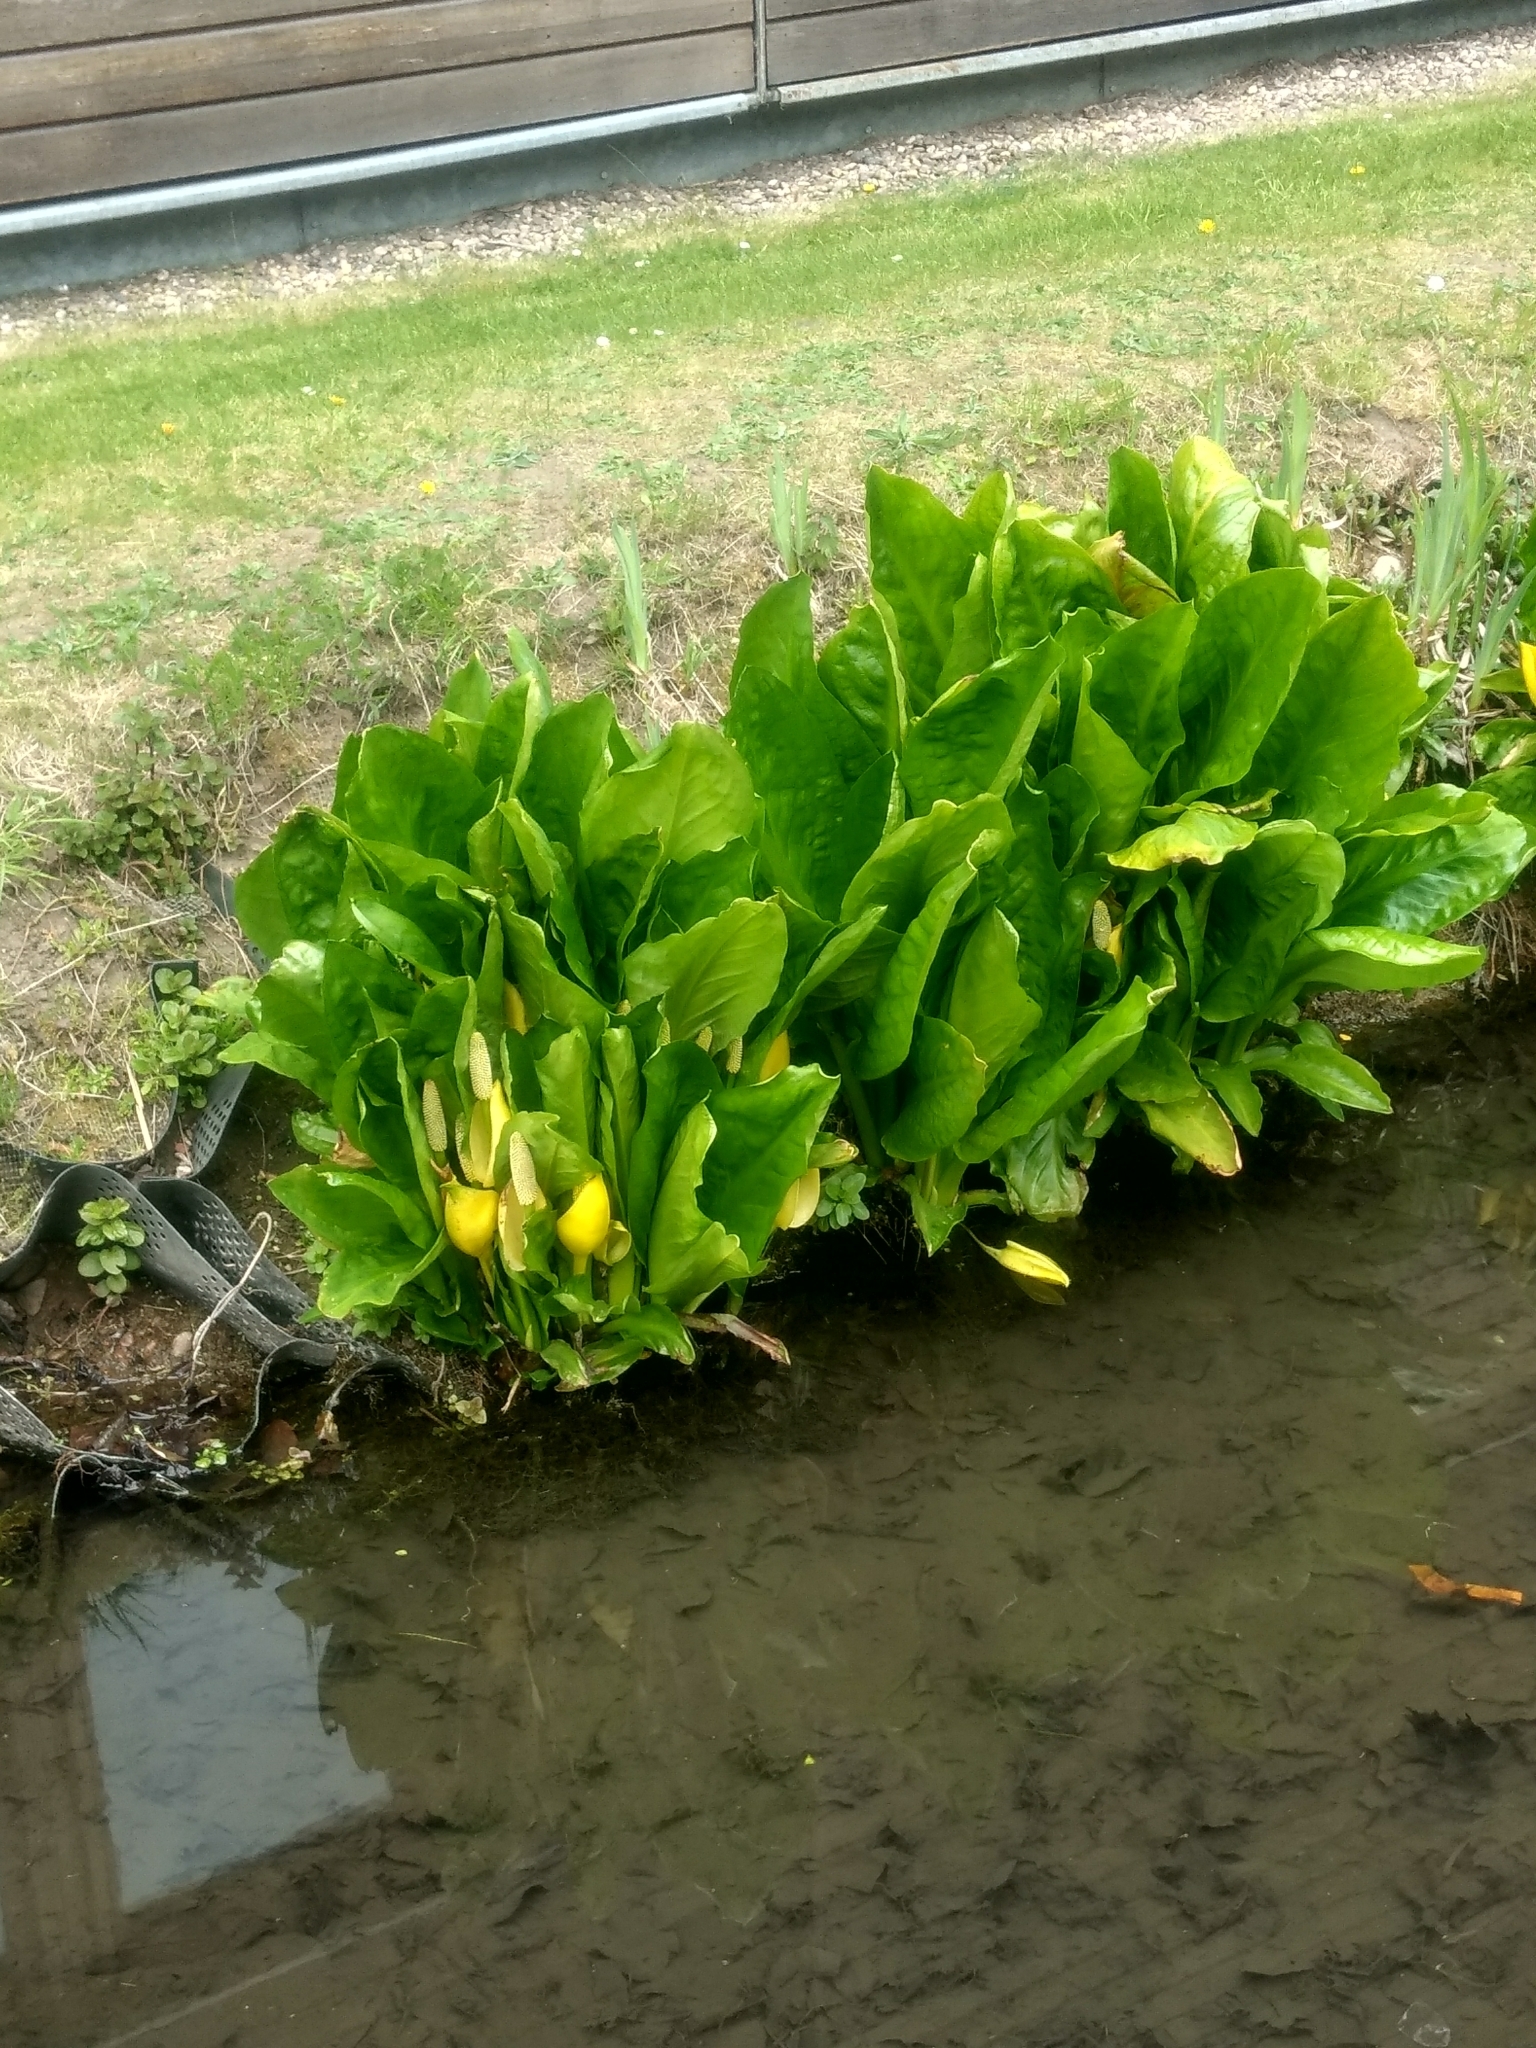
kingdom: Plantae
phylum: Tracheophyta
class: Liliopsida
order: Alismatales
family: Araceae
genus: Lysichiton
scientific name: Lysichiton americanus
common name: American skunk cabbage
